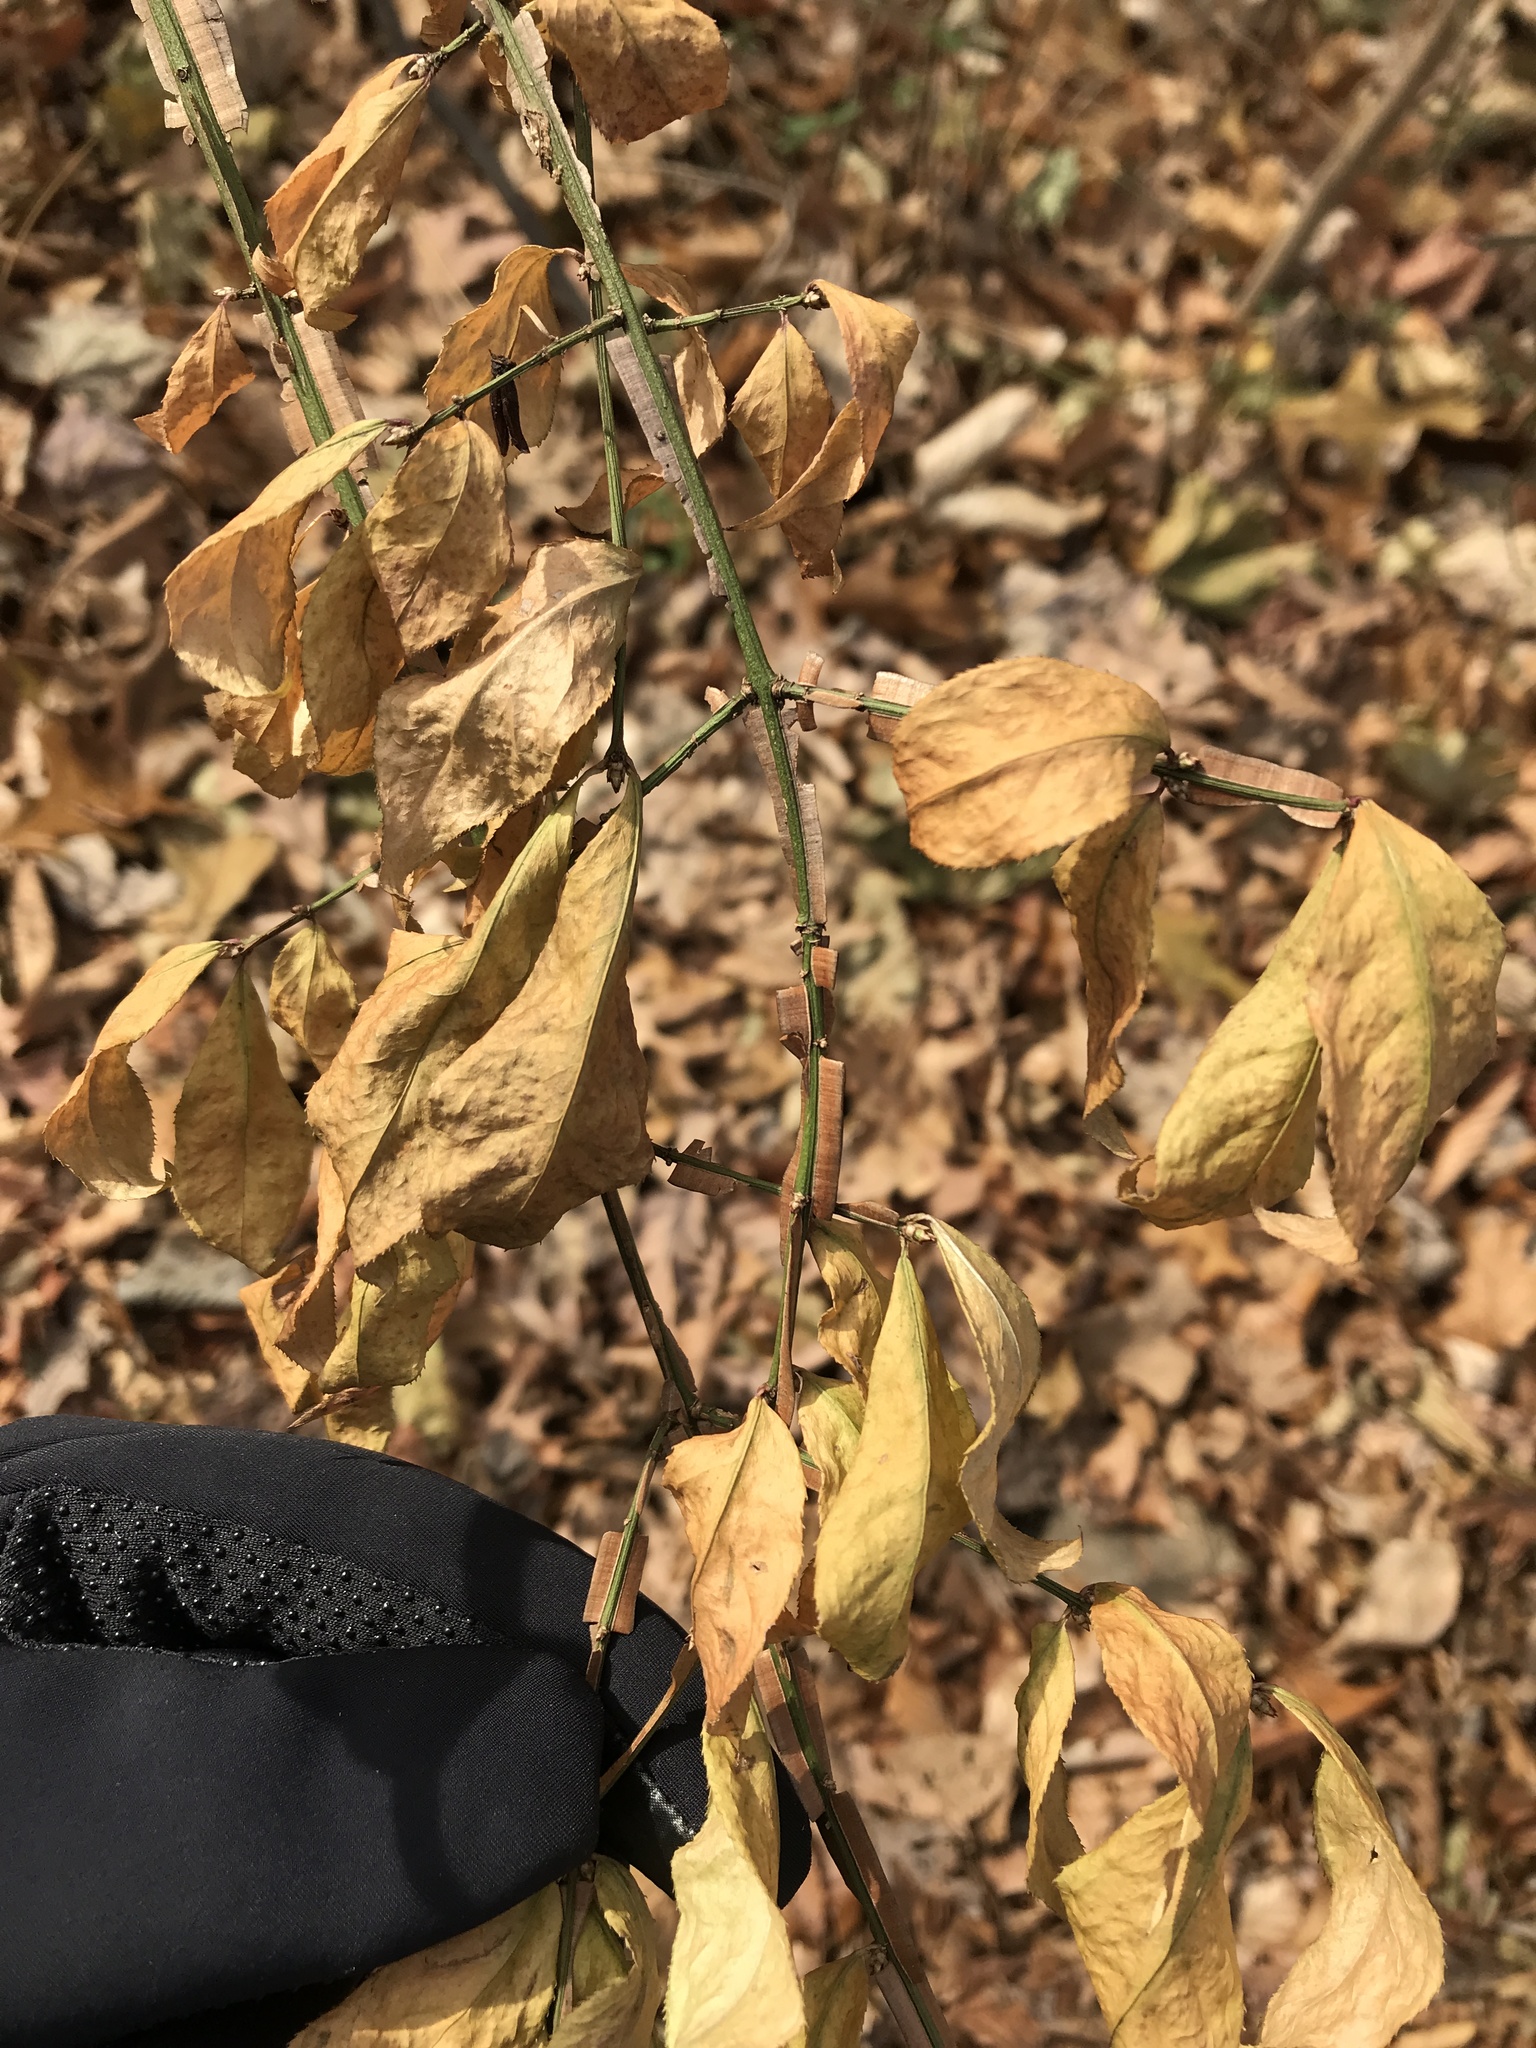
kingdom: Plantae
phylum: Tracheophyta
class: Magnoliopsida
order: Celastrales
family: Celastraceae
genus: Euonymus
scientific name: Euonymus alatus
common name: Winged euonymus
